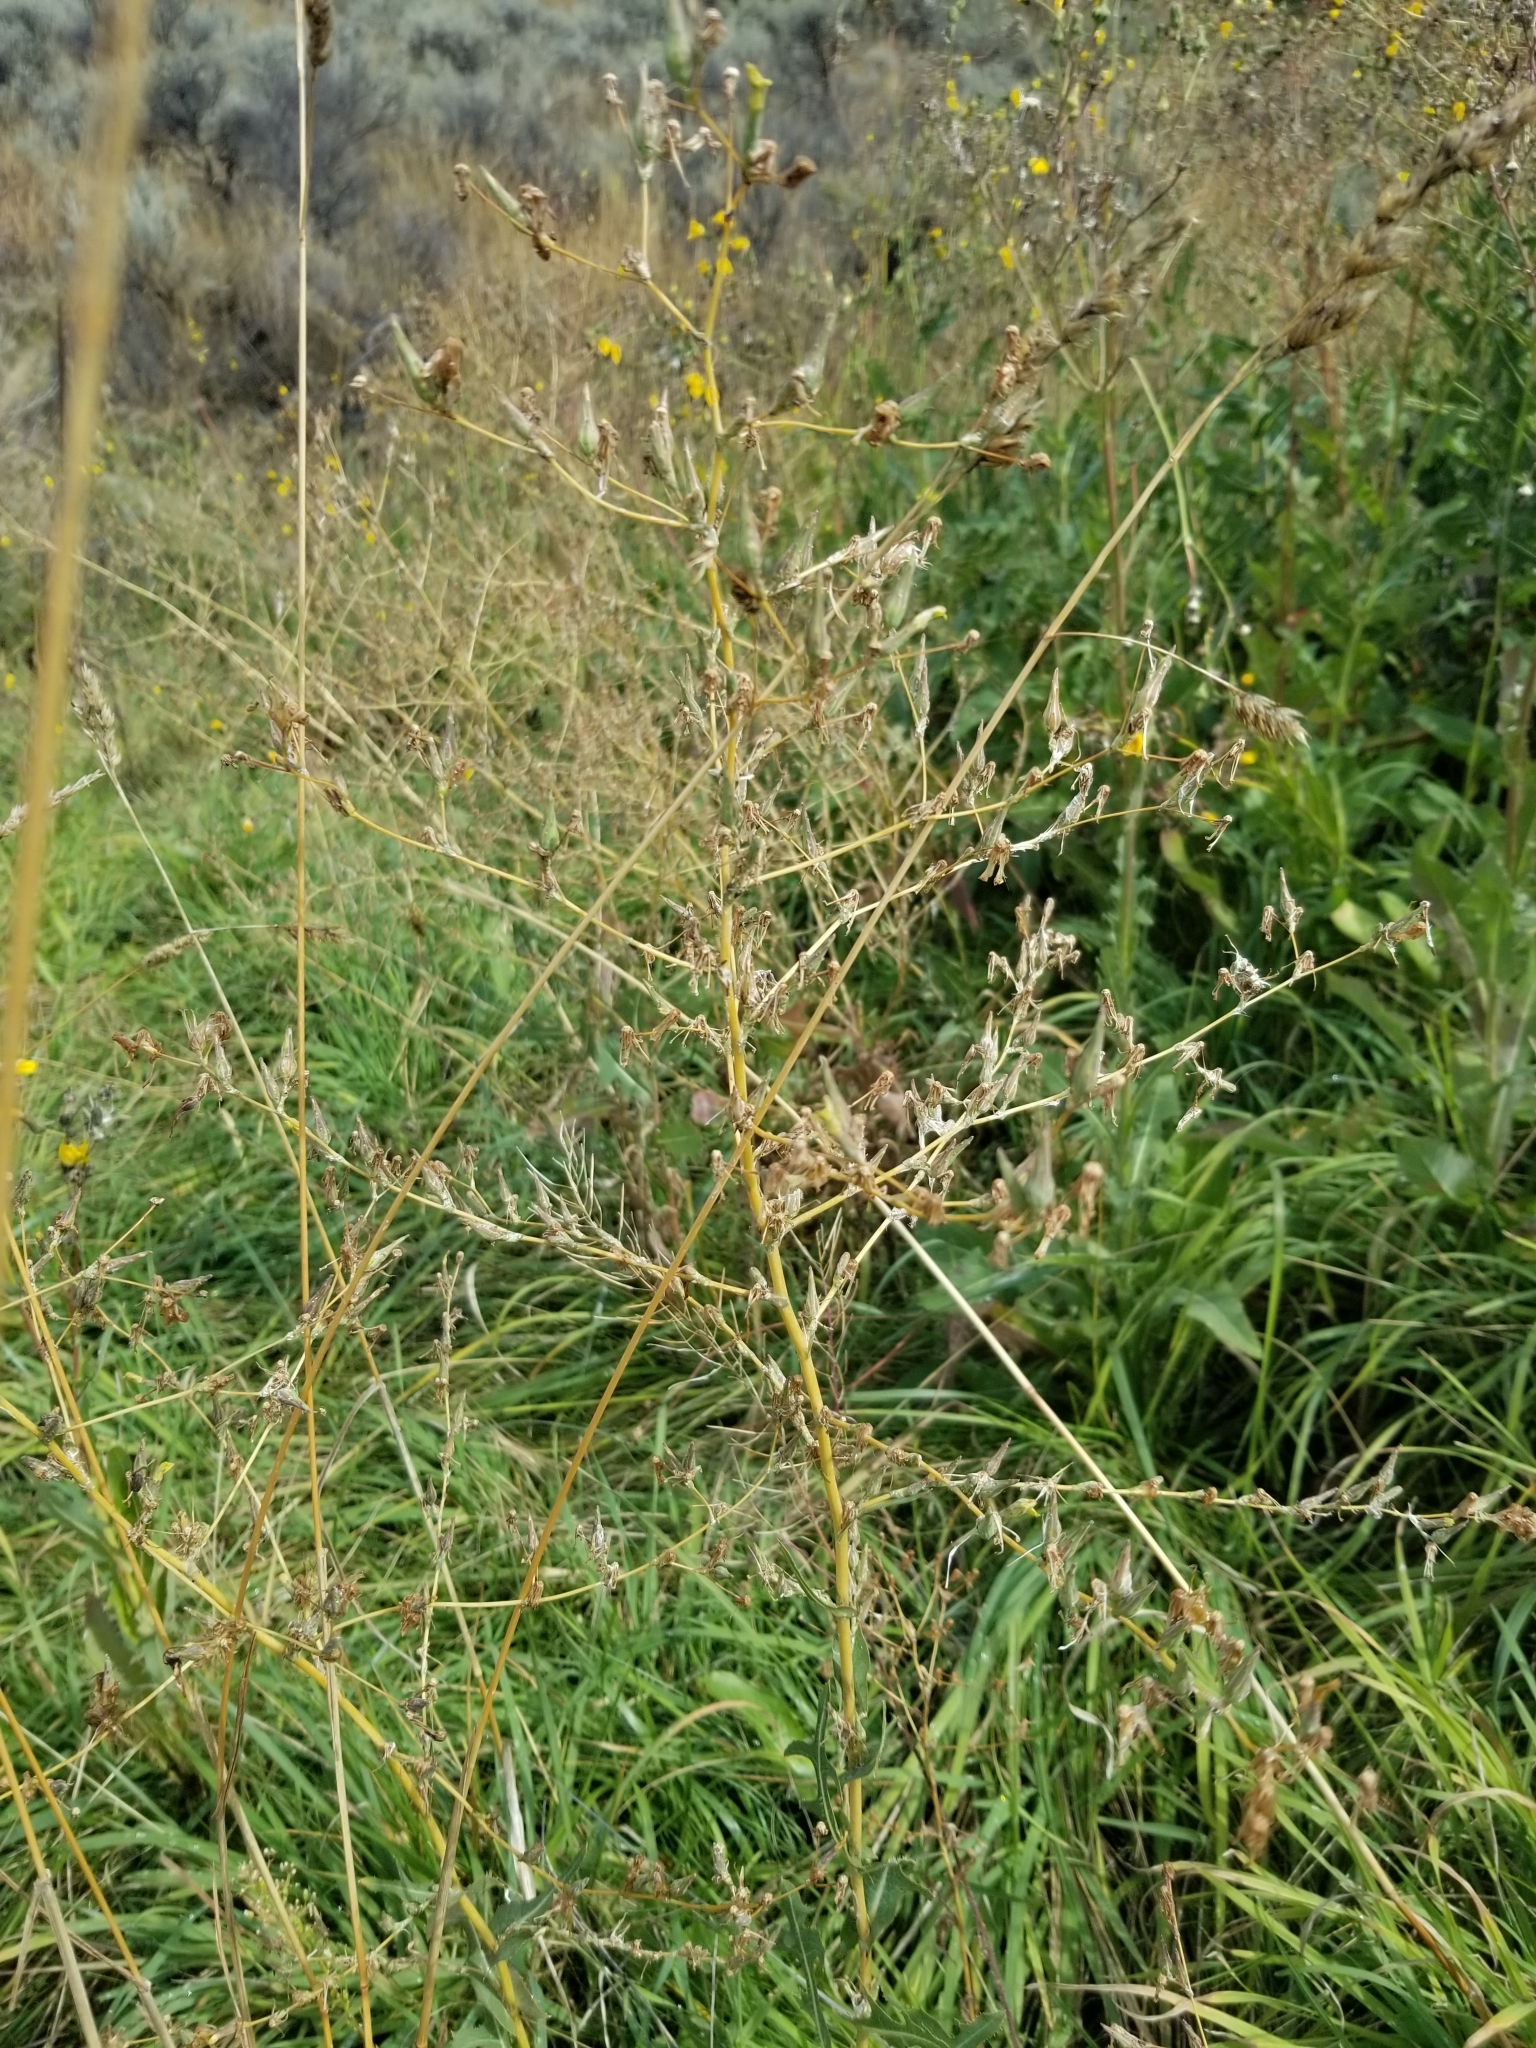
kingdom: Plantae
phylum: Tracheophyta
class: Magnoliopsida
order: Asterales
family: Asteraceae
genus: Lactuca
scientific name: Lactuca serriola
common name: Prickly lettuce
